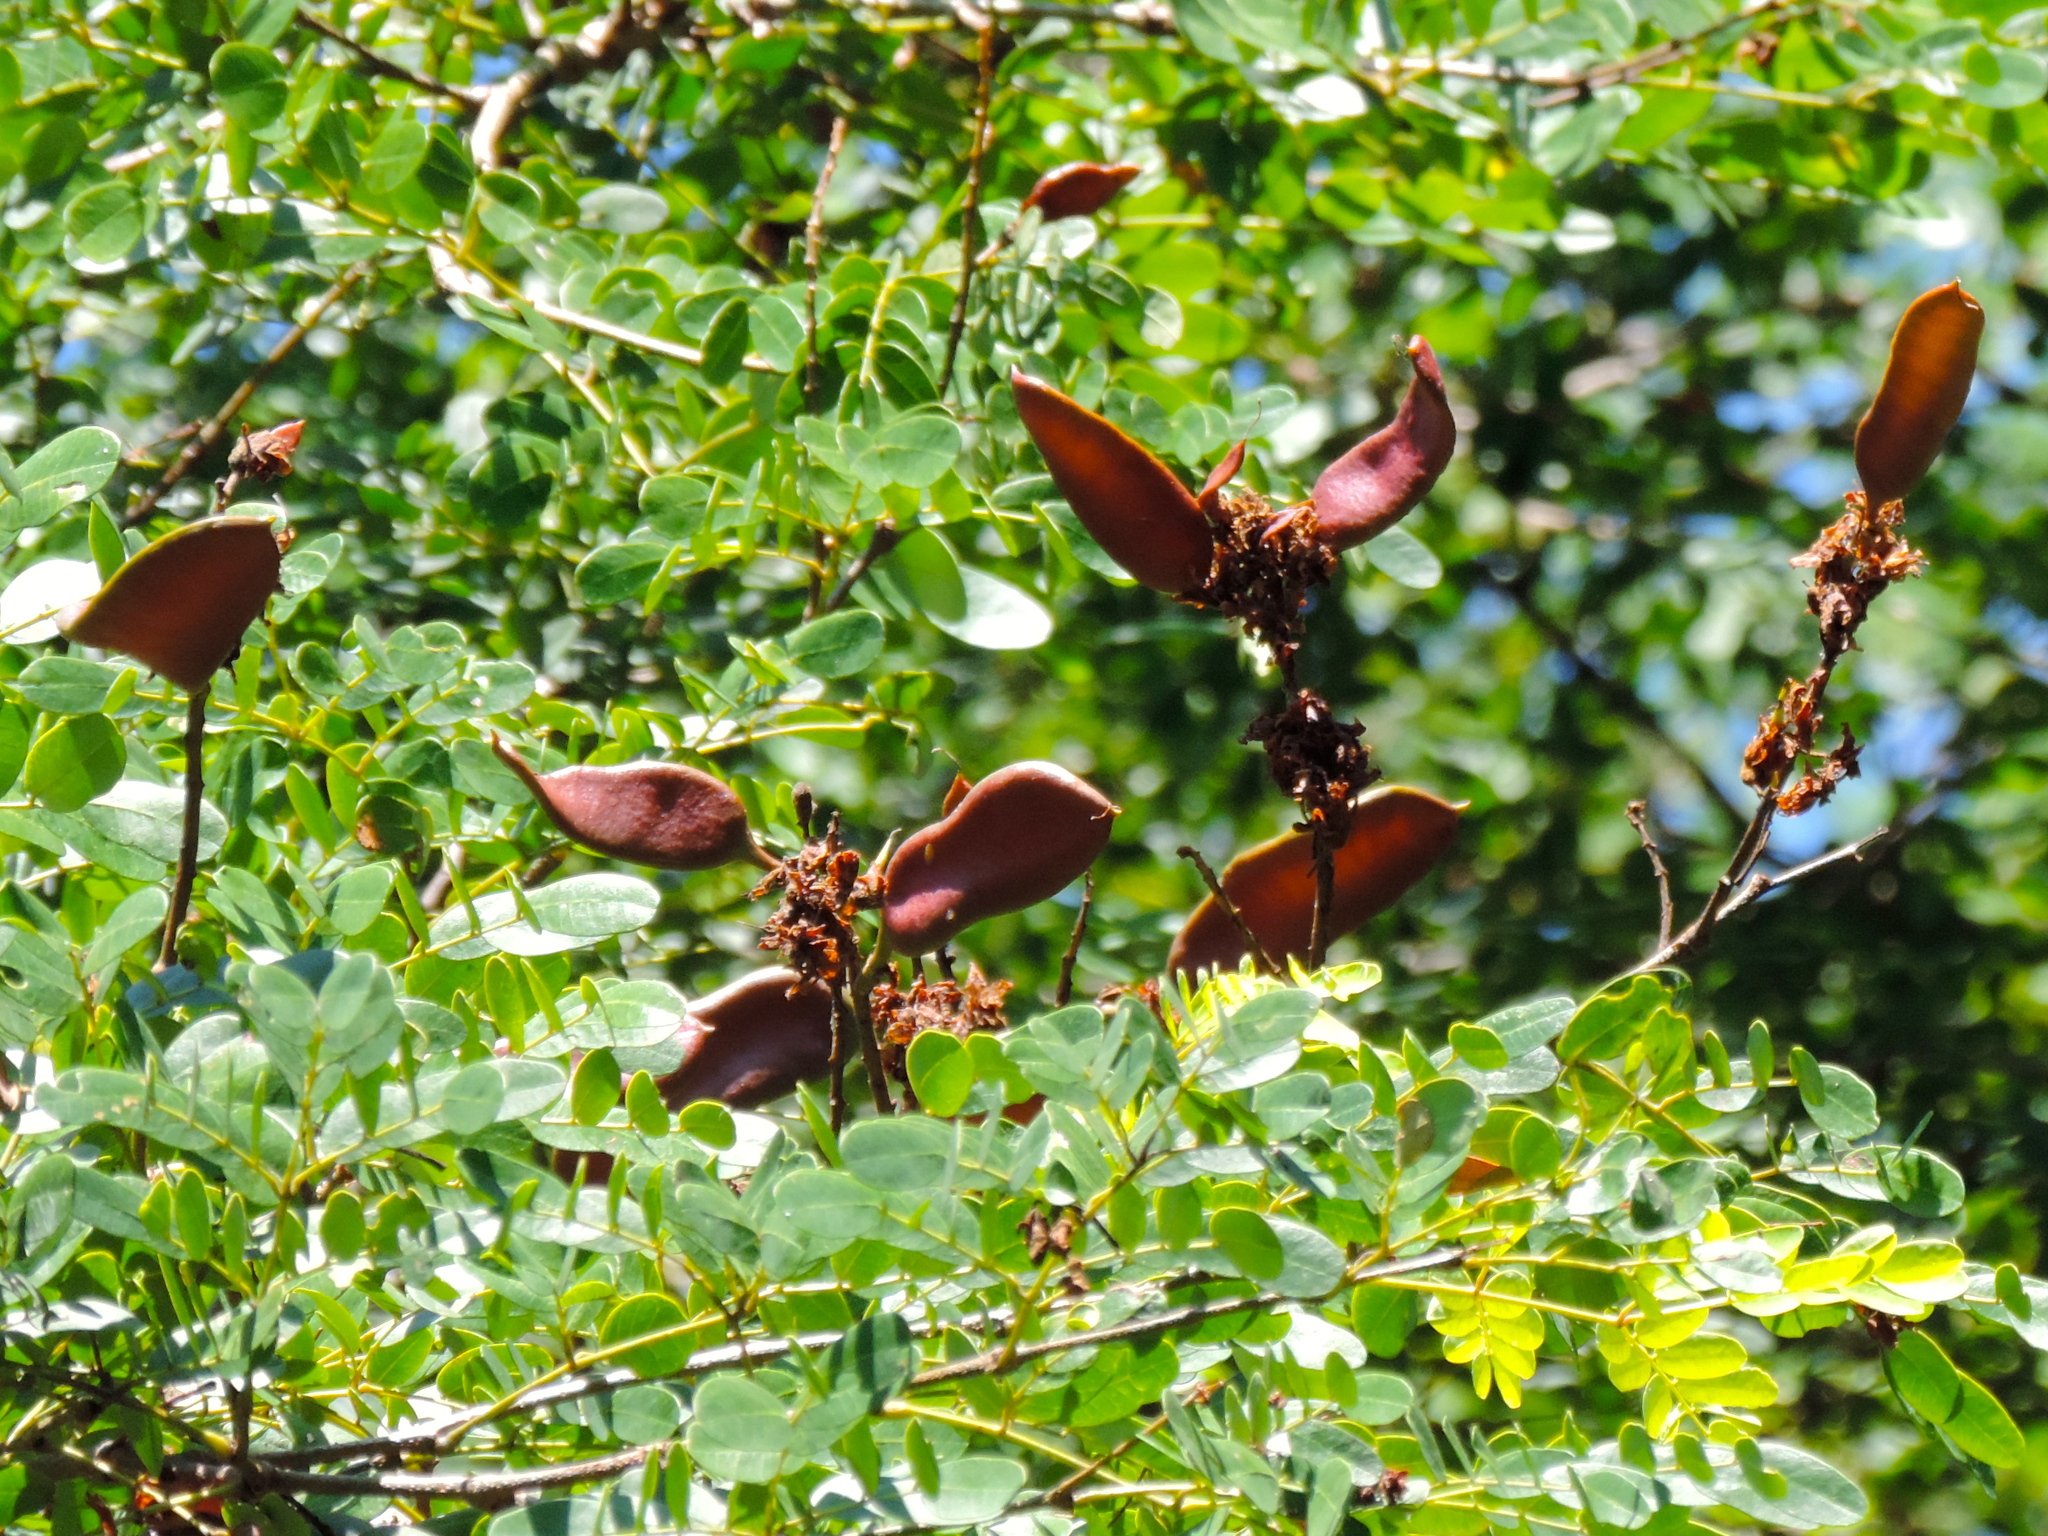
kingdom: Plantae
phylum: Tracheophyta
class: Magnoliopsida
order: Fabales
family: Fabaceae
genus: Libidibia
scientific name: Libidibia sclerocarpa
